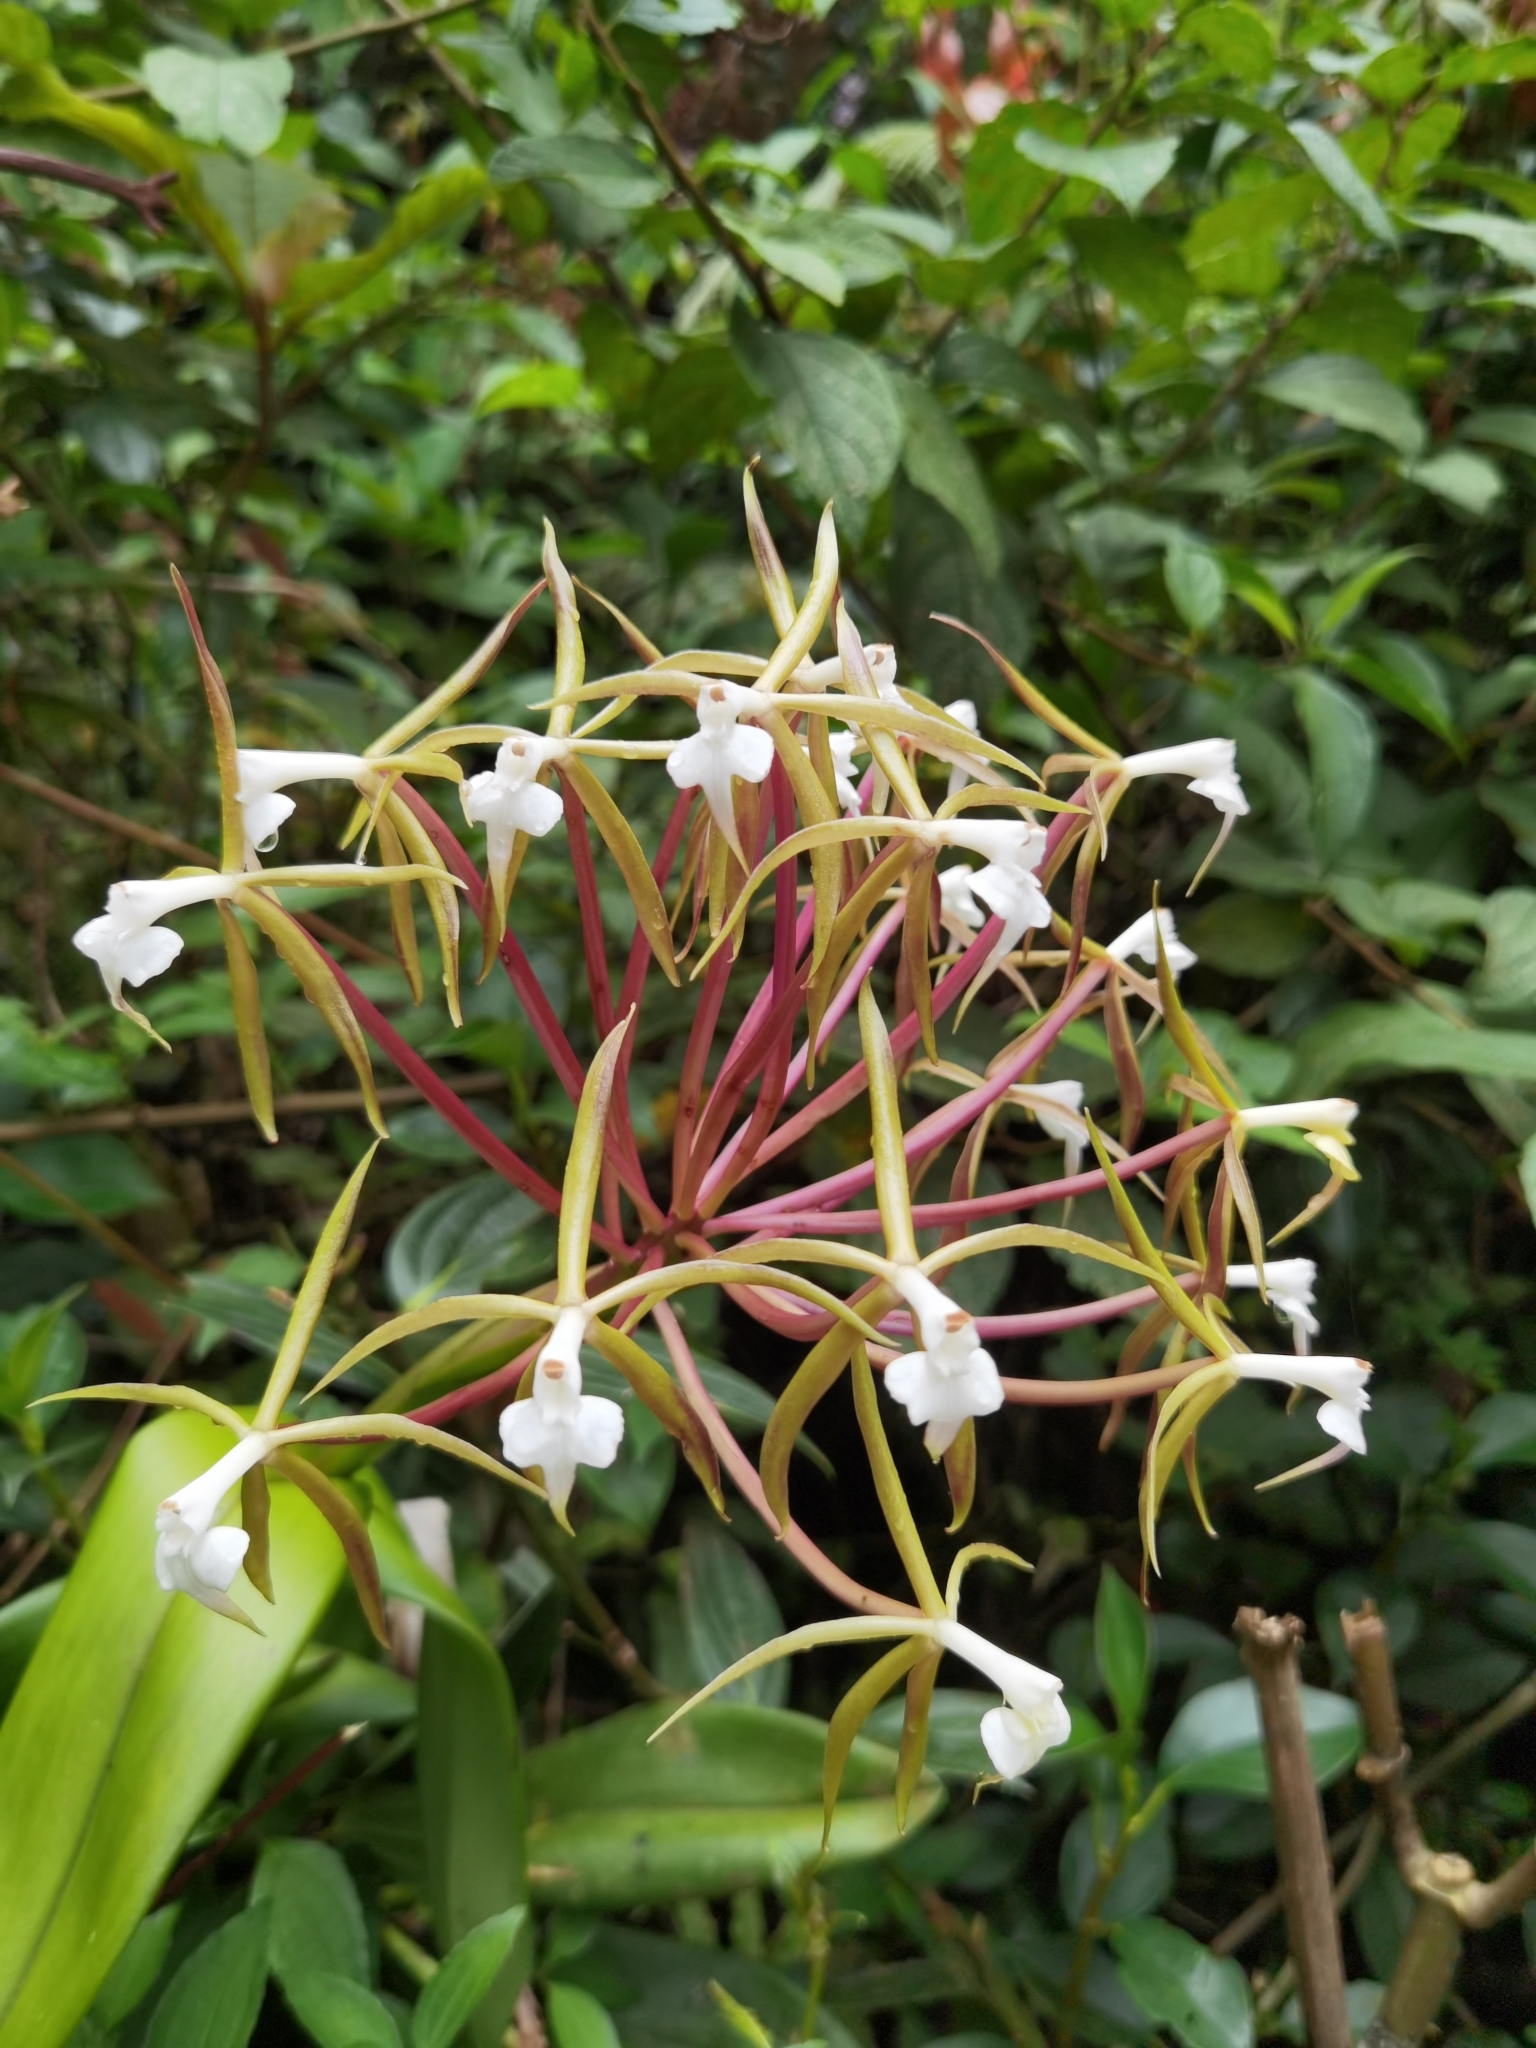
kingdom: Plantae
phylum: Tracheophyta
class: Liliopsida
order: Asparagales
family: Orchidaceae
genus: Epidendrum
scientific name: Epidendrum lacustre
